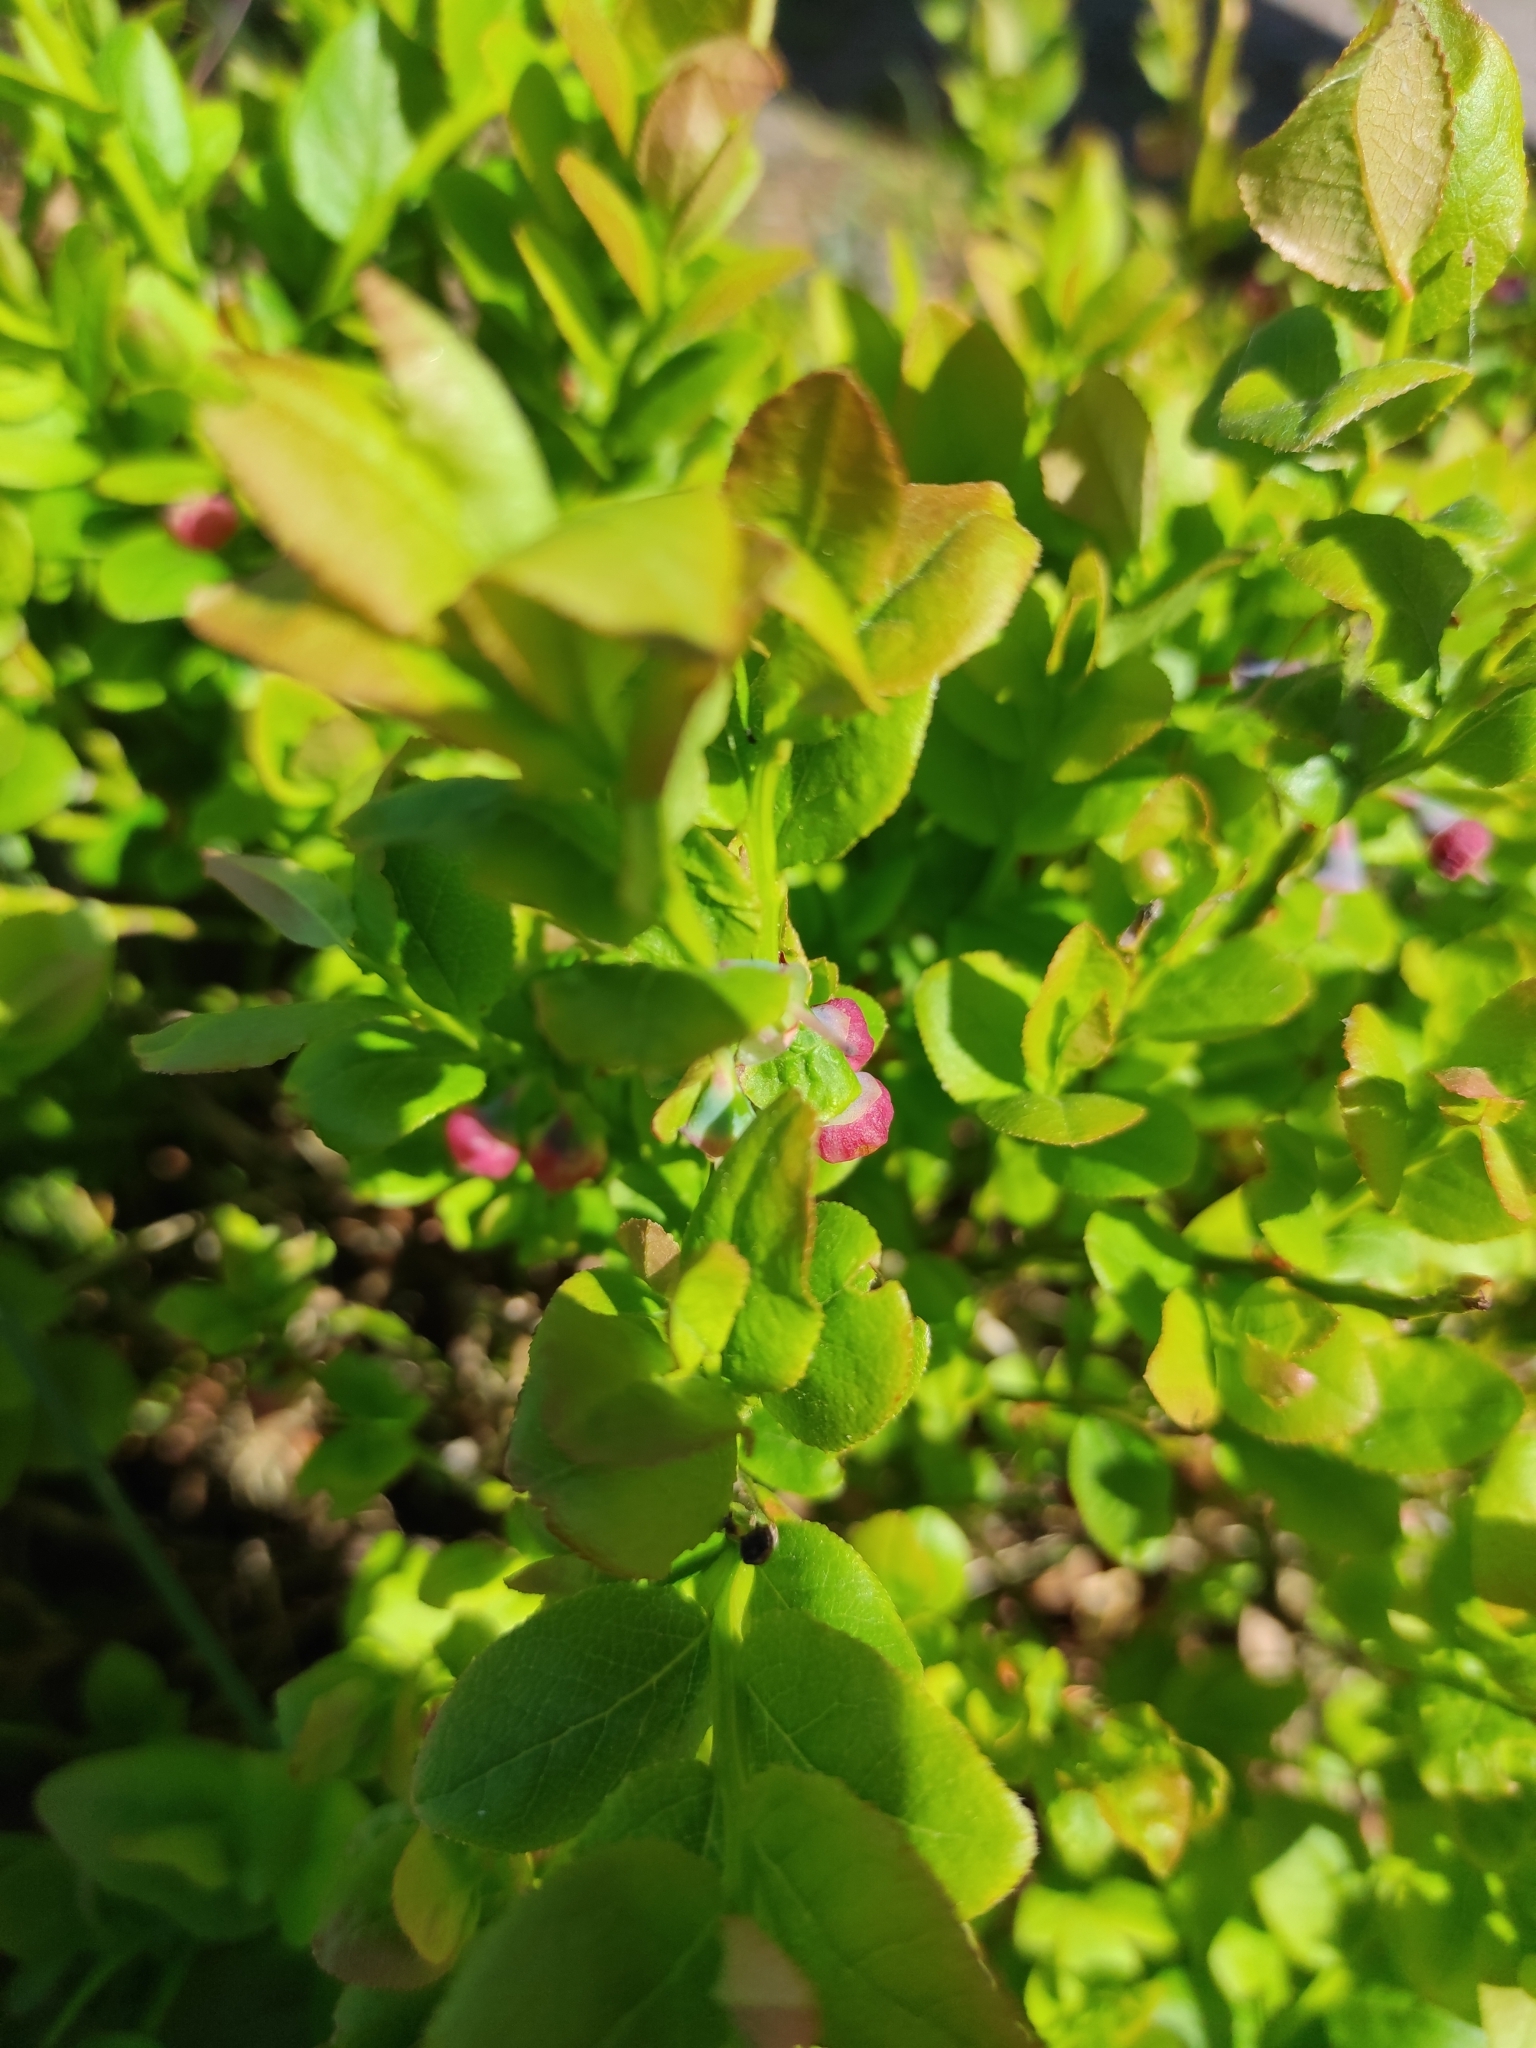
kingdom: Plantae
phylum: Tracheophyta
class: Magnoliopsida
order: Ericales
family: Ericaceae
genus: Vaccinium
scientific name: Vaccinium myrtillus
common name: Bilberry
